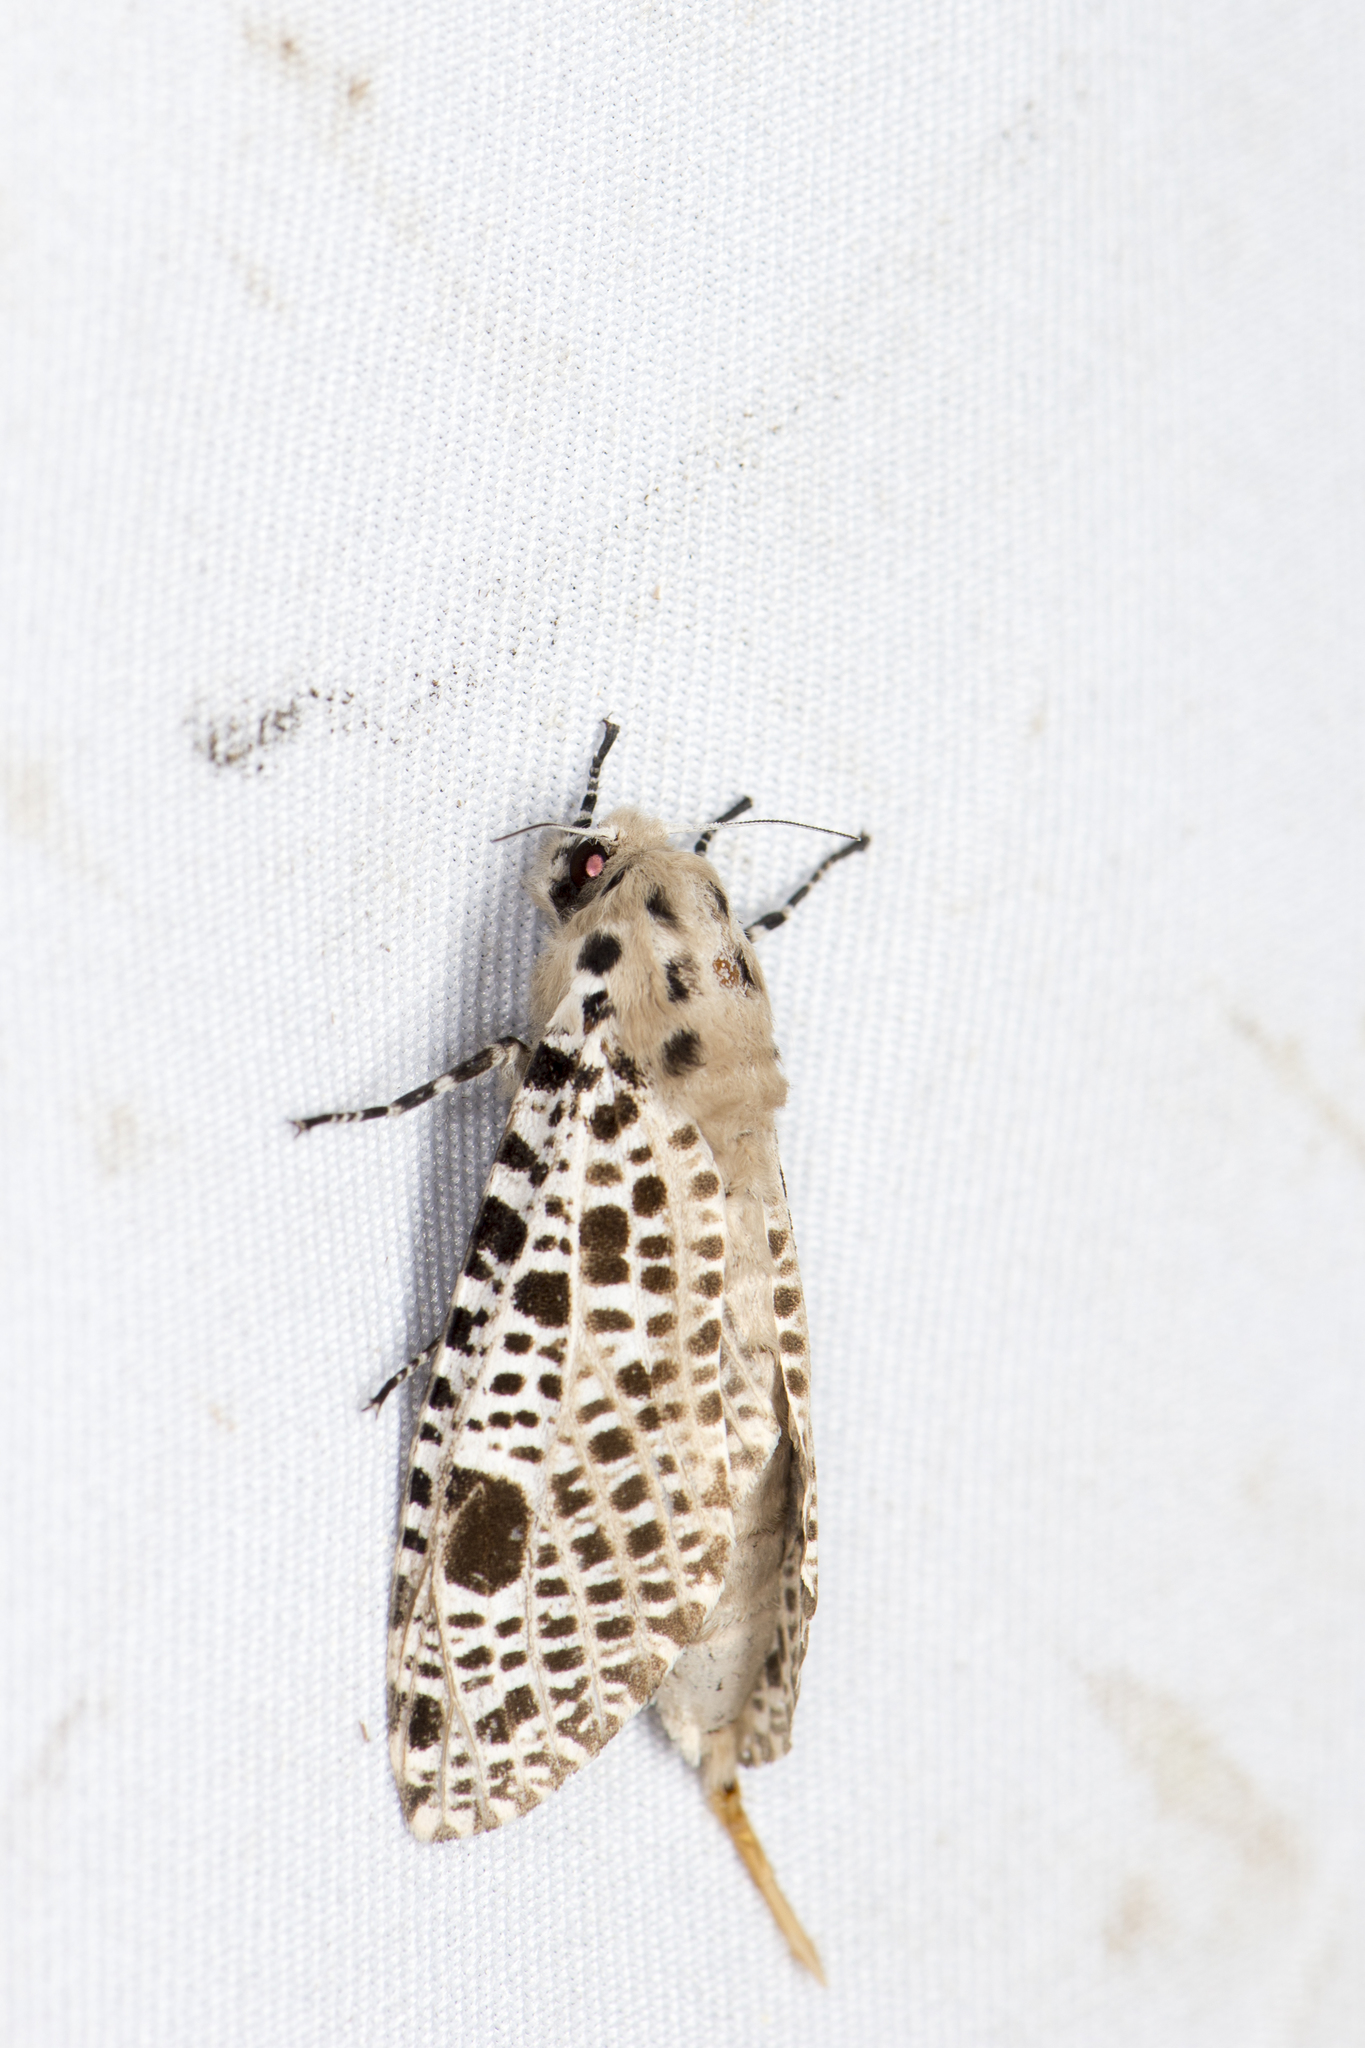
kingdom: Animalia
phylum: Arthropoda
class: Insecta
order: Lepidoptera
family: Cossidae
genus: Rapdalus
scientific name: Rapdalus pardicolor
